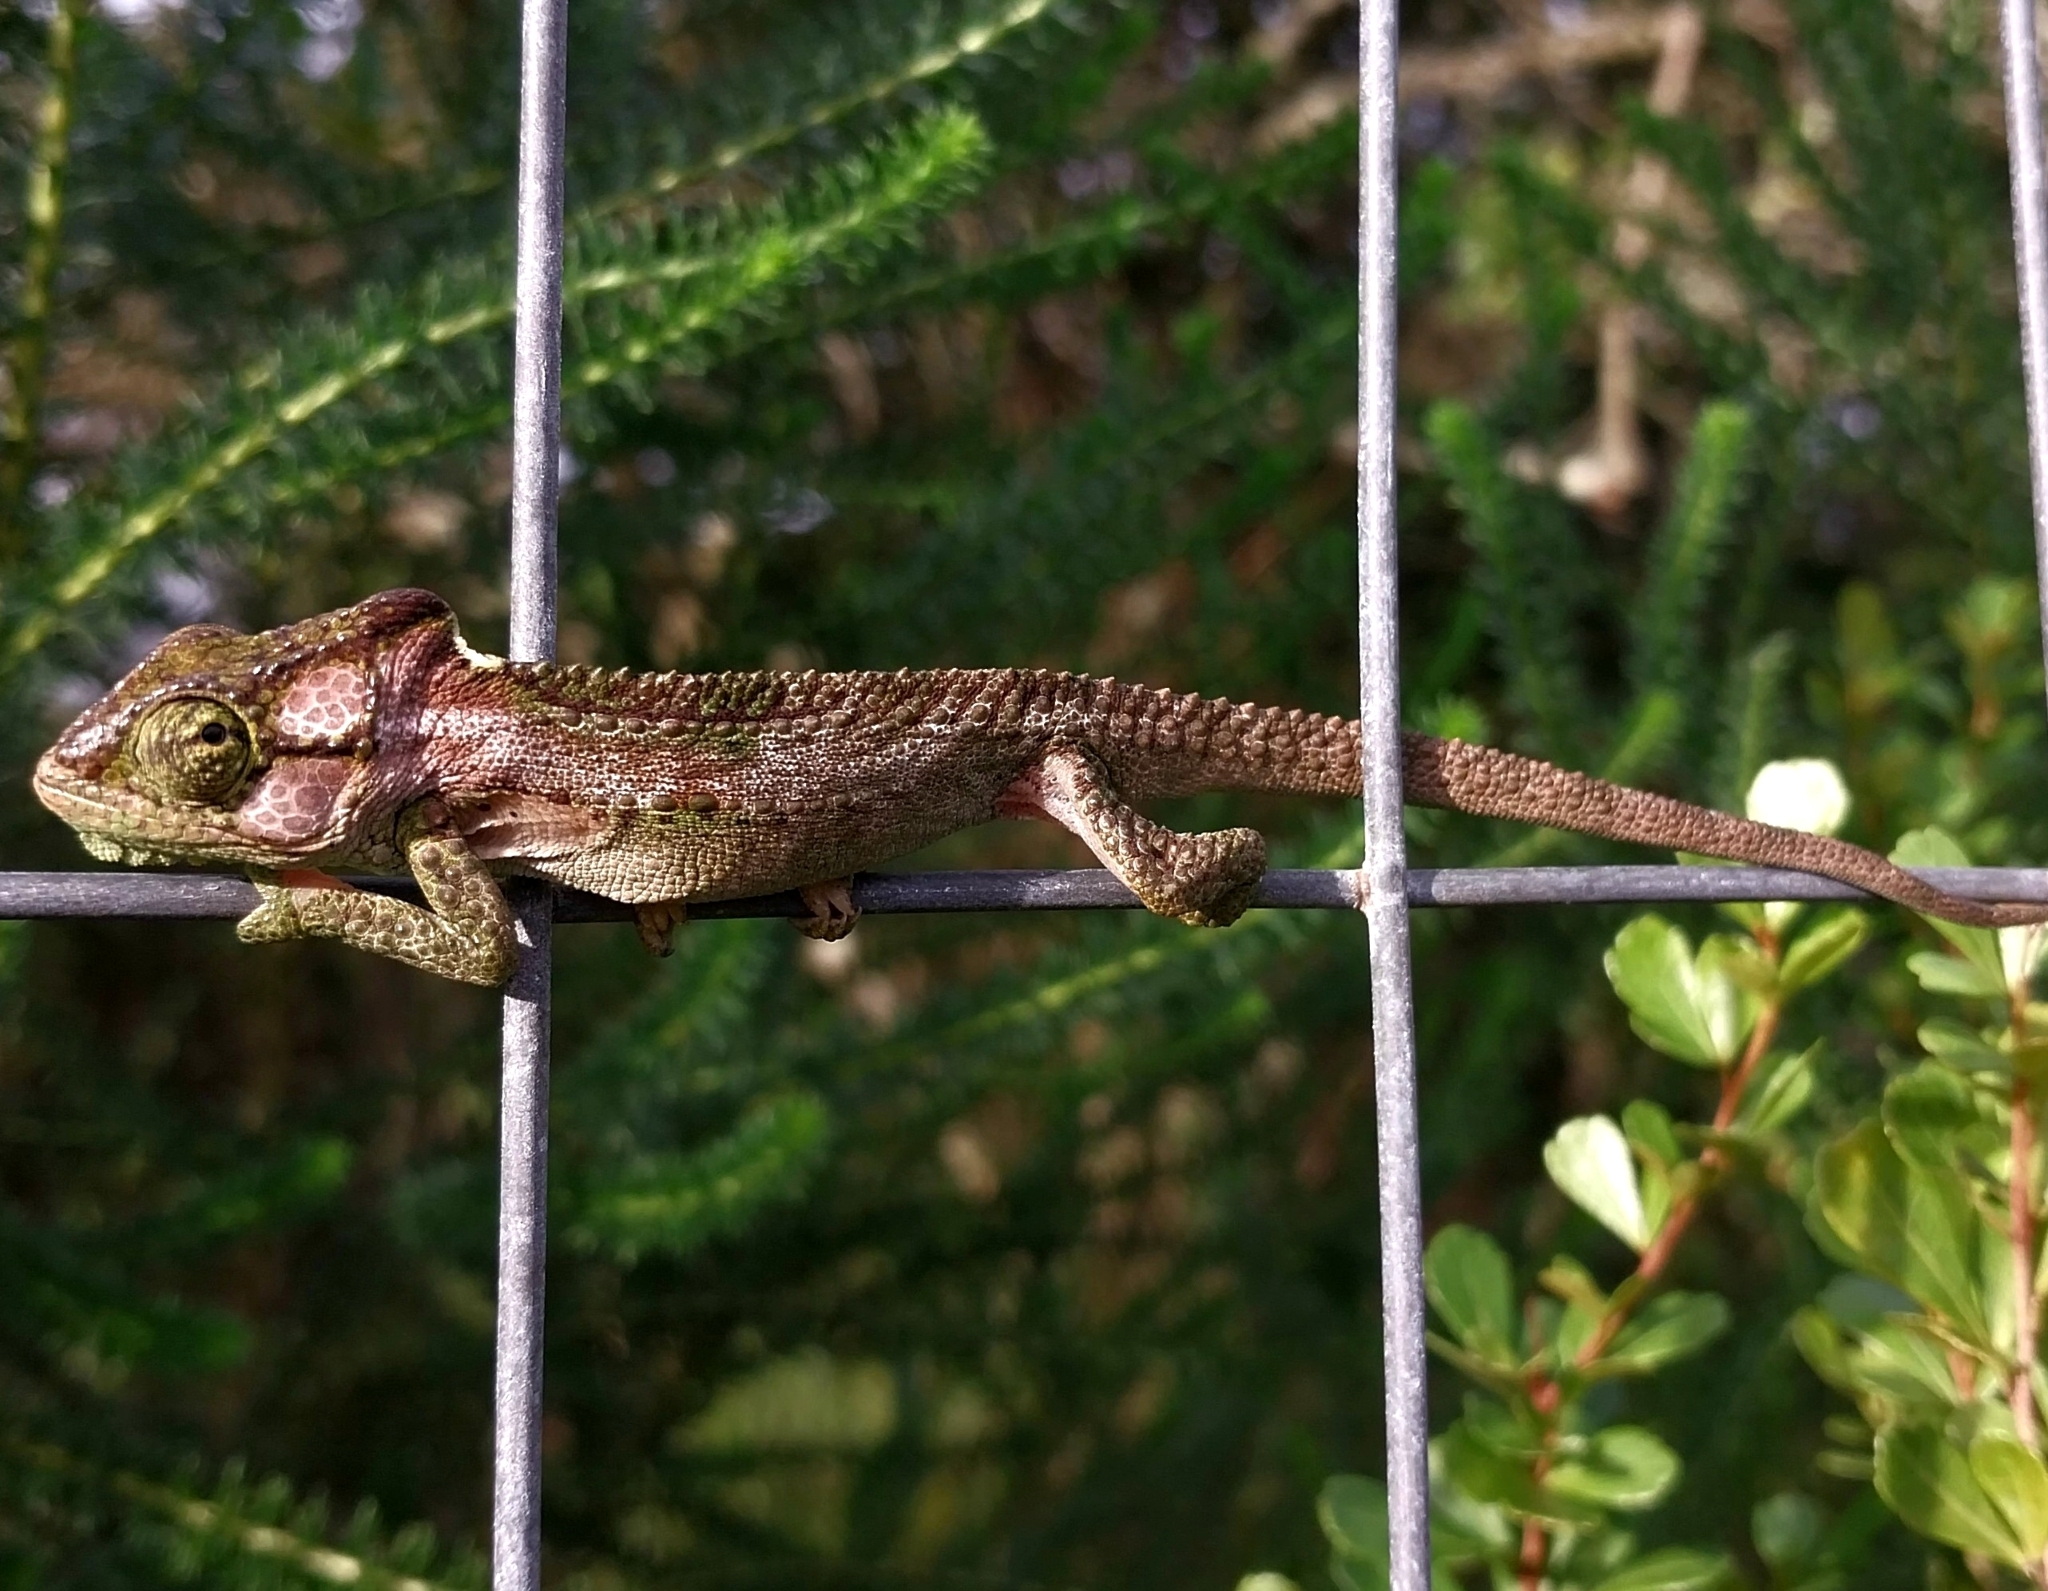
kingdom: Animalia
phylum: Chordata
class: Squamata
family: Chamaeleonidae
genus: Bradypodion
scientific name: Bradypodion damaranum
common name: Knysna dwarf chameleon
